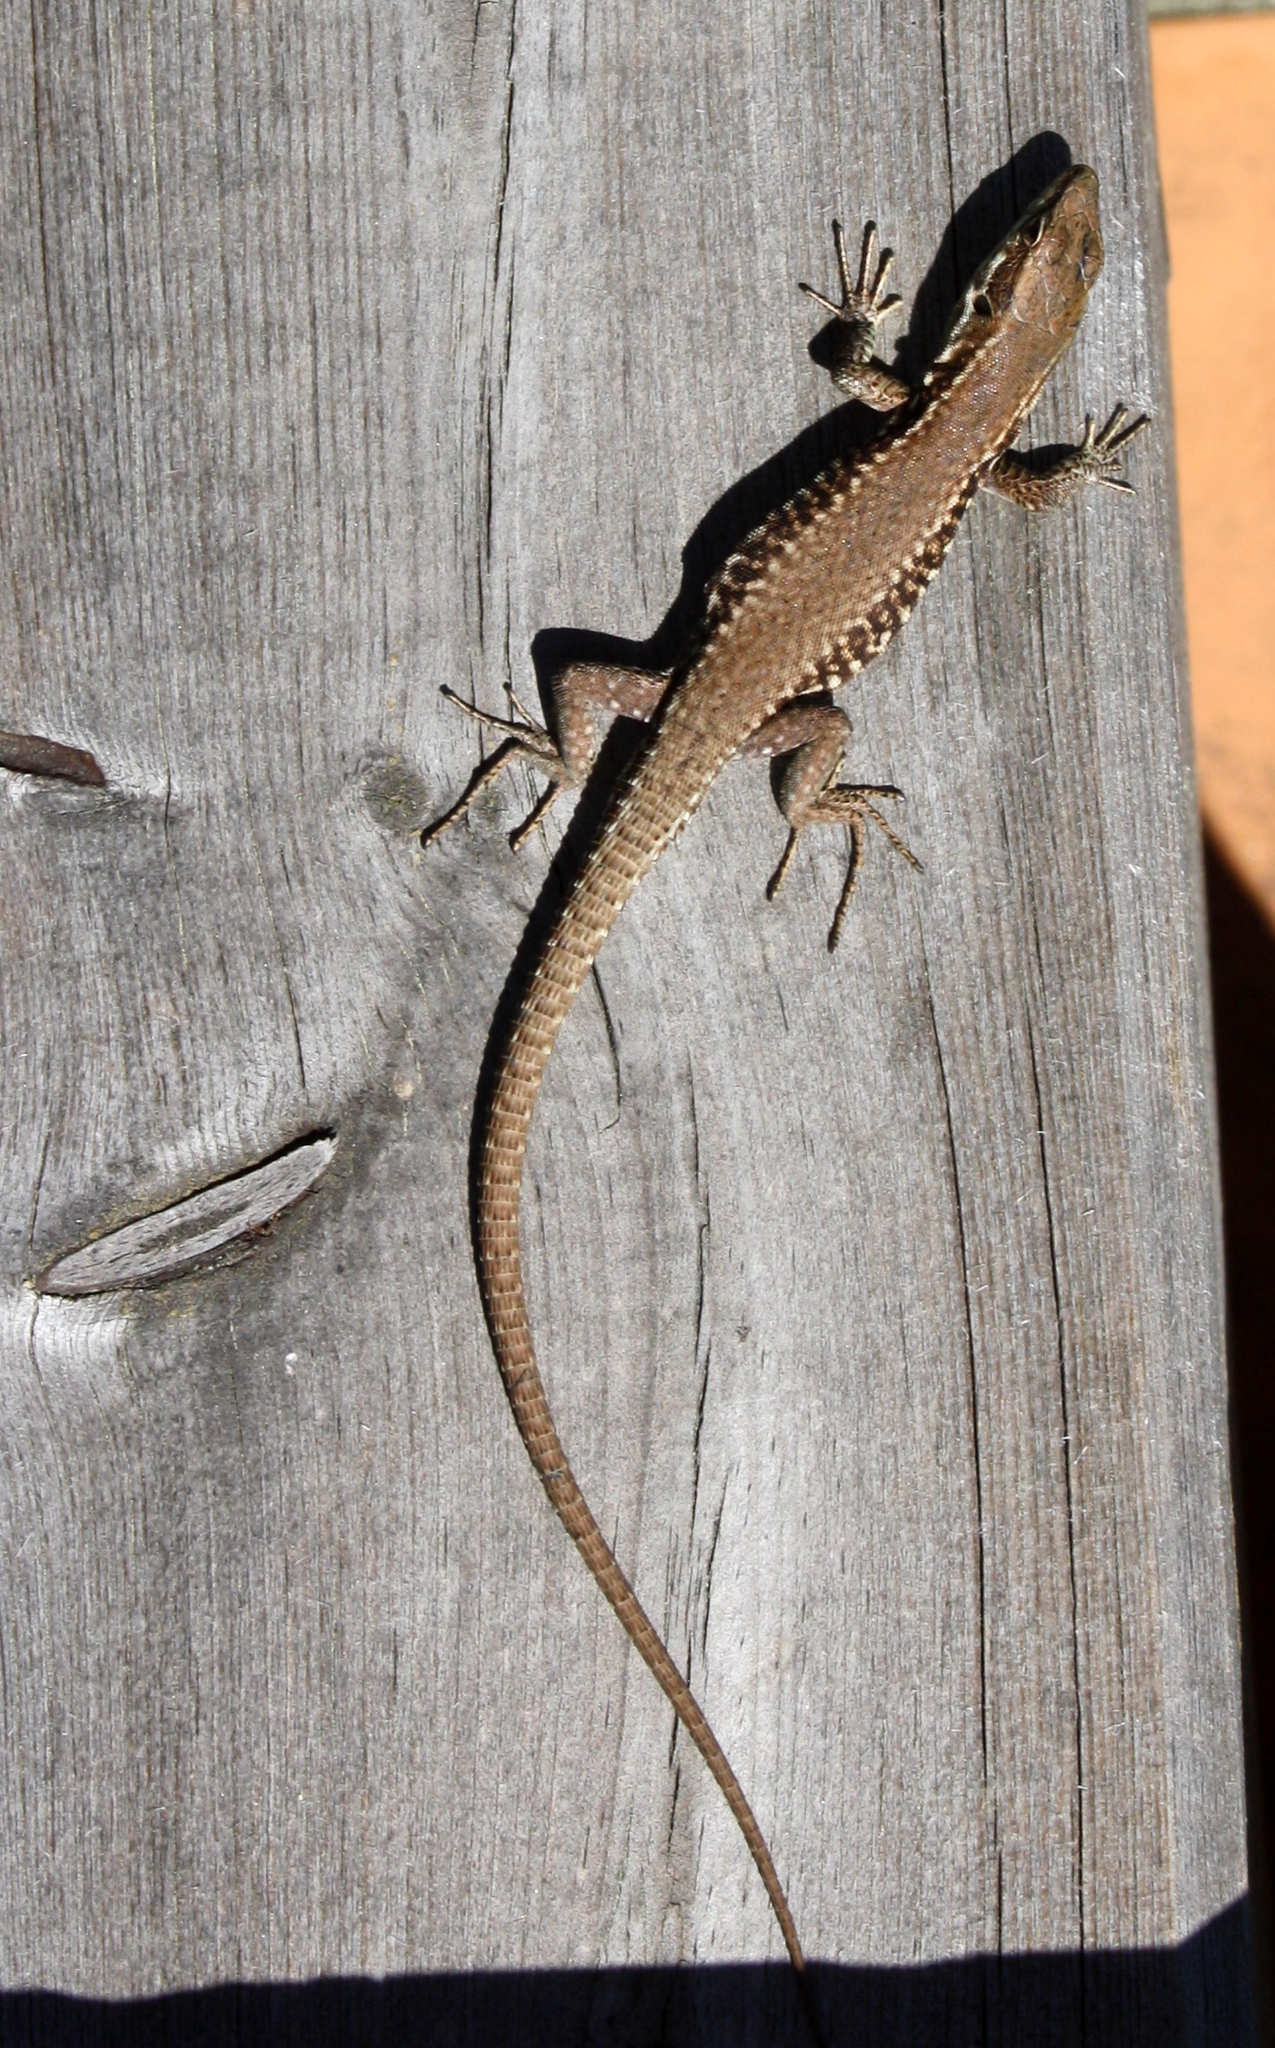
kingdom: Animalia
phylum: Chordata
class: Squamata
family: Lacertidae
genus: Podarcis
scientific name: Podarcis muralis
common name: Common wall lizard
